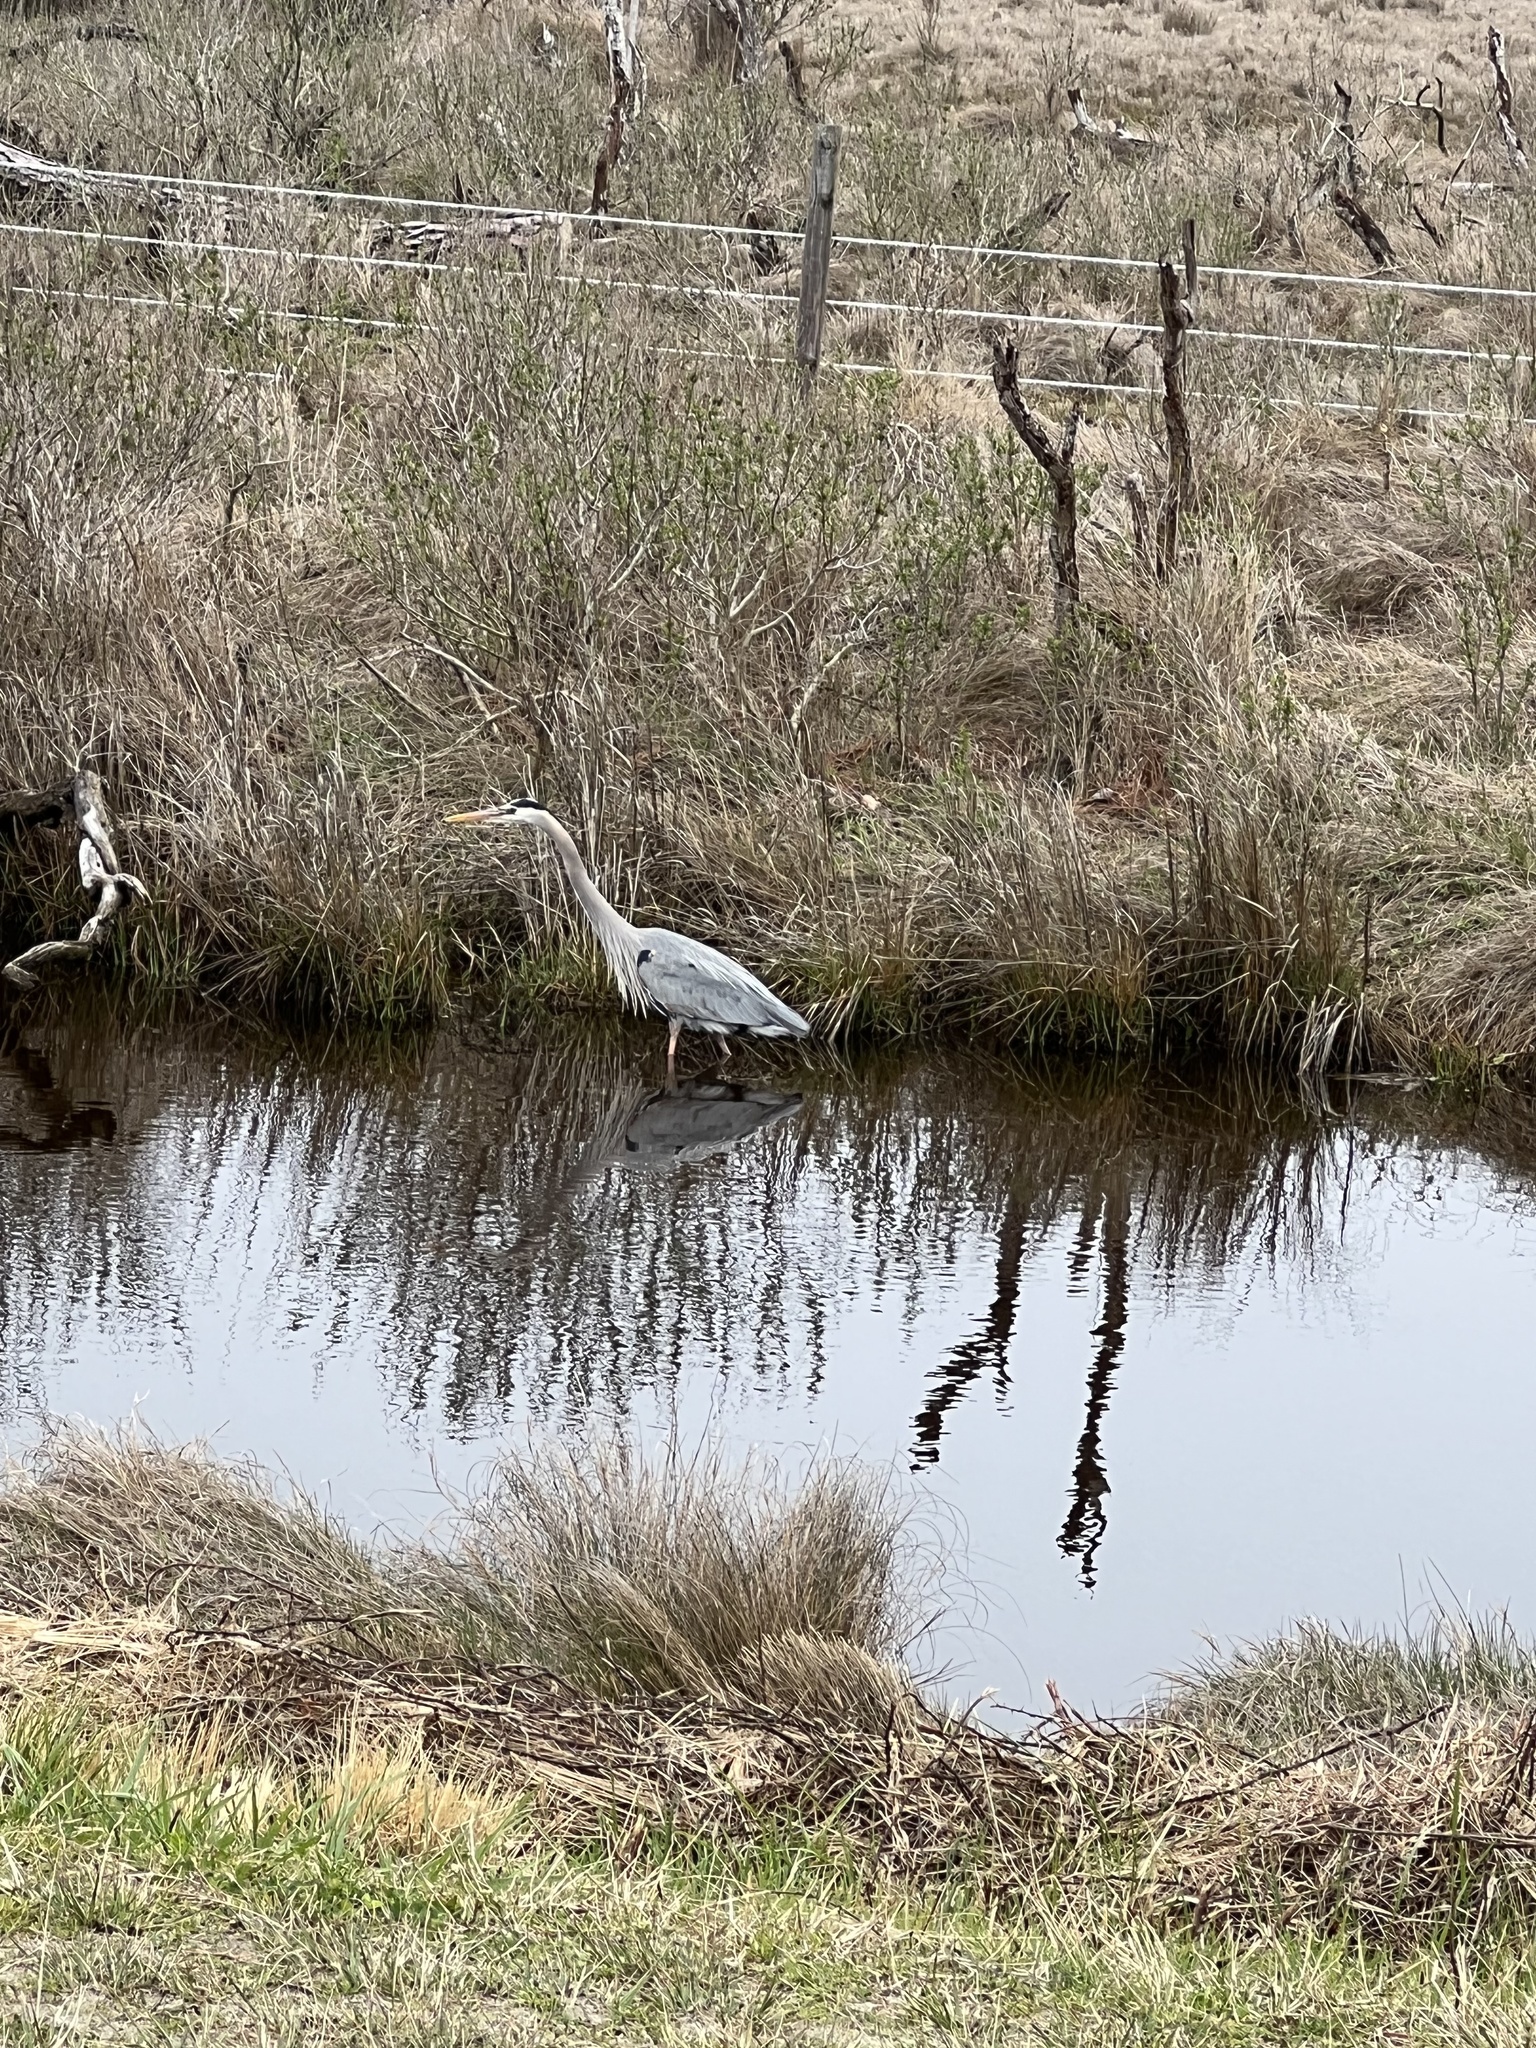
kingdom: Animalia
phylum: Chordata
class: Aves
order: Pelecaniformes
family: Ardeidae
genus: Ardea
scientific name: Ardea herodias
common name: Great blue heron
